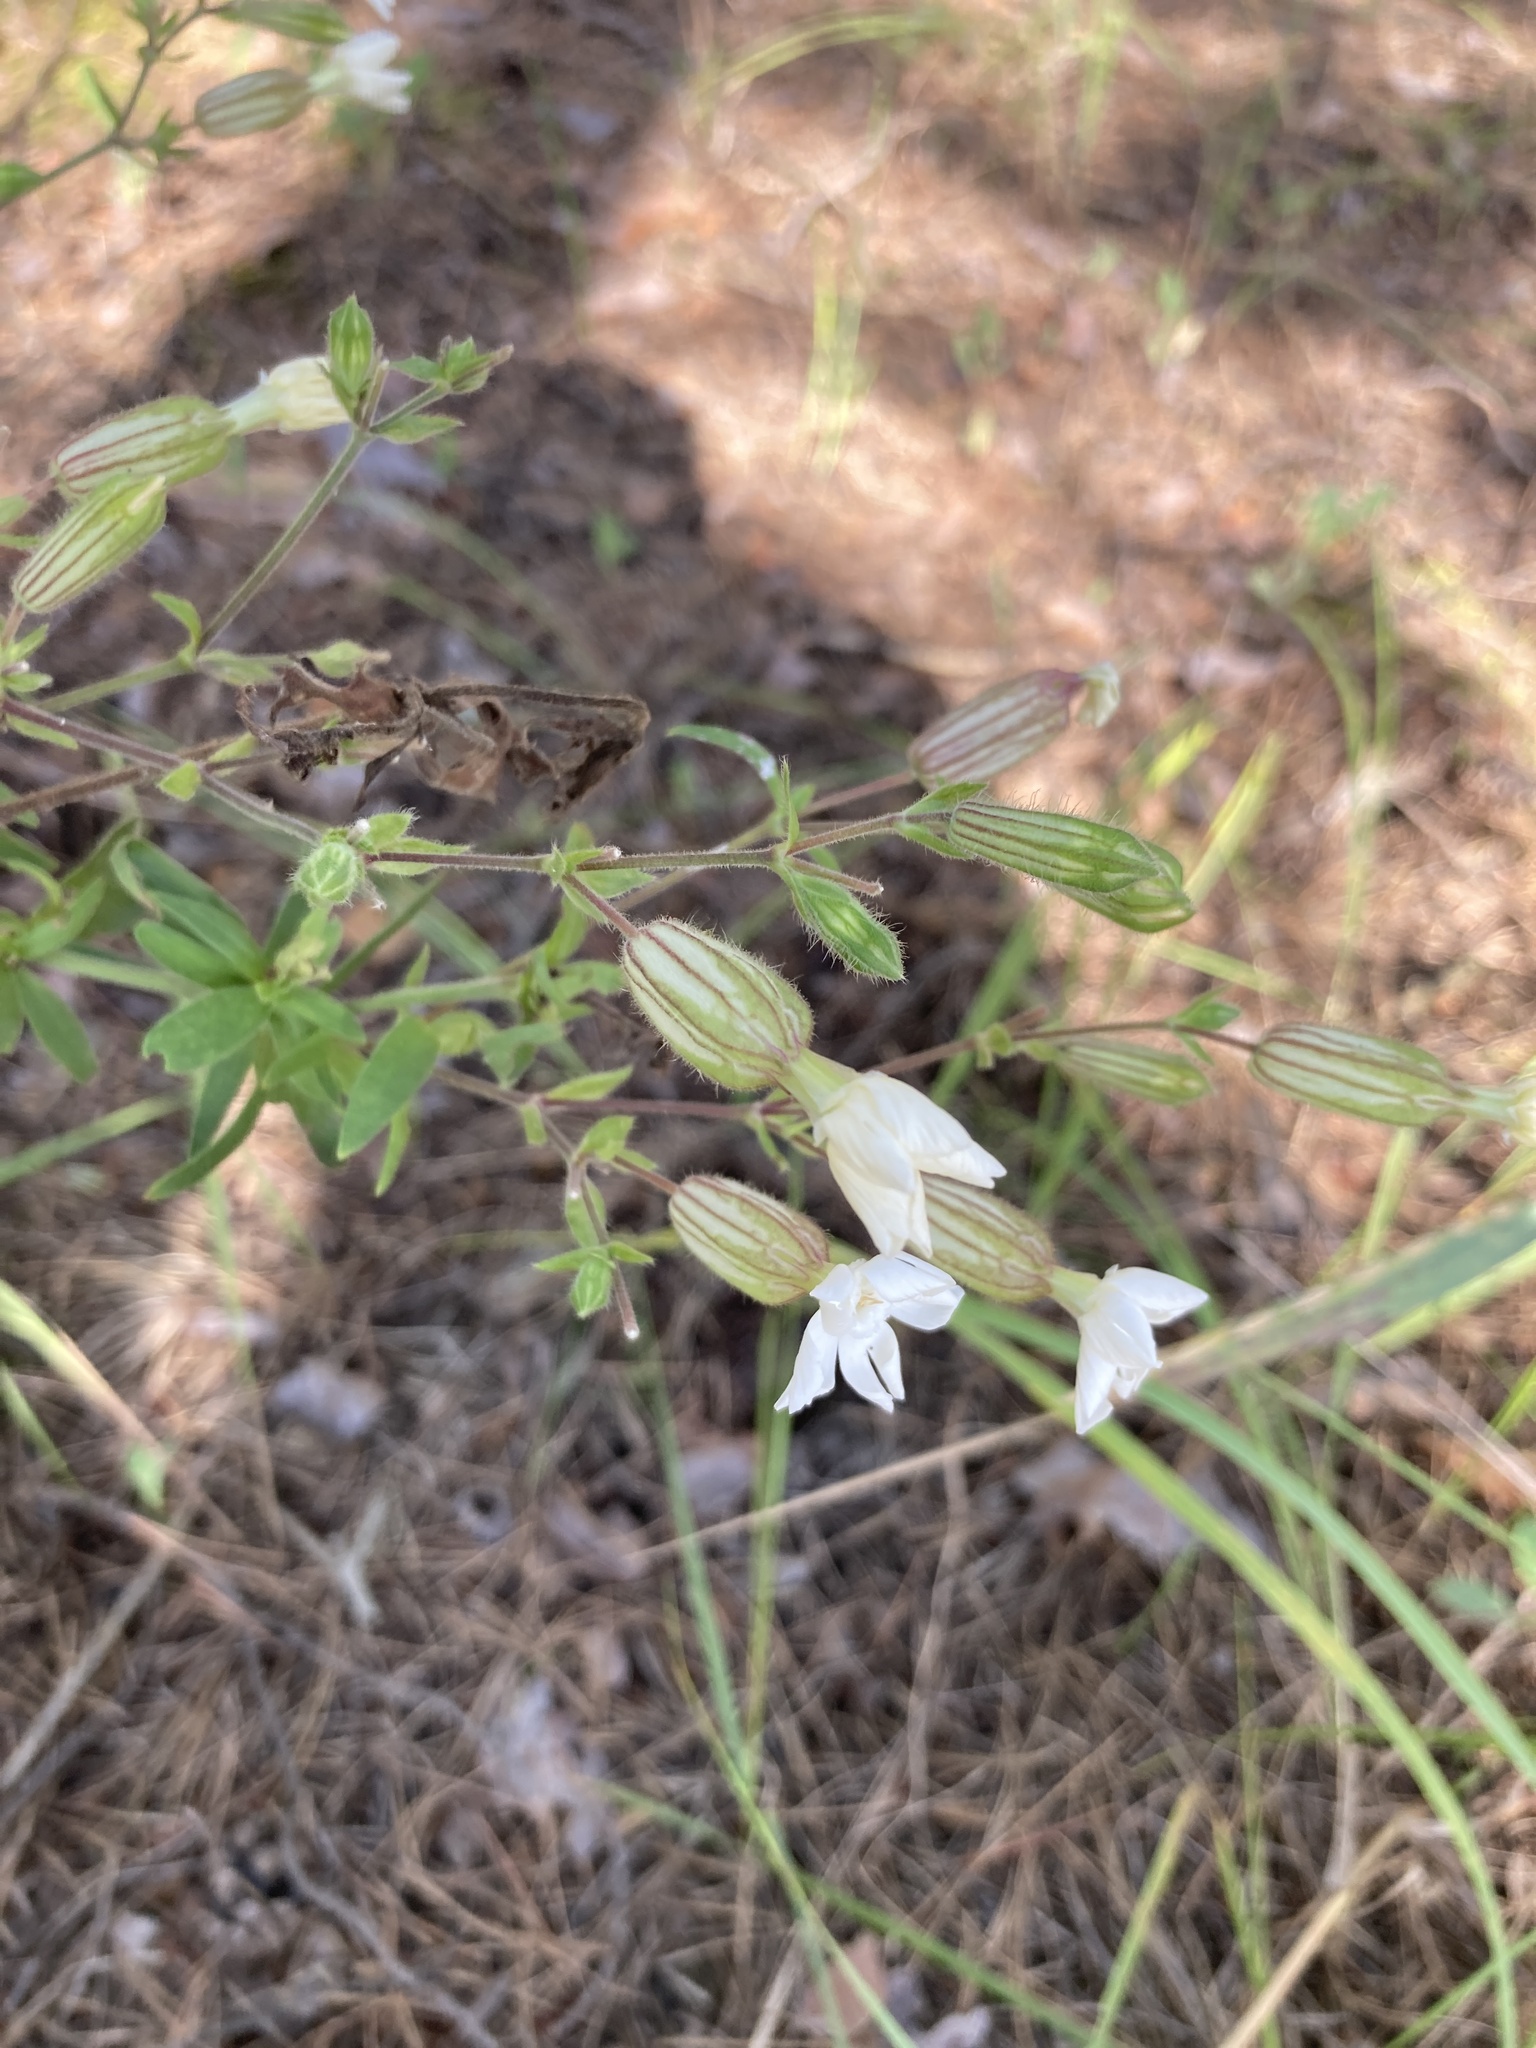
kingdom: Plantae
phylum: Tracheophyta
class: Magnoliopsida
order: Caryophyllales
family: Caryophyllaceae
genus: Silene
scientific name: Silene latifolia
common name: White campion
